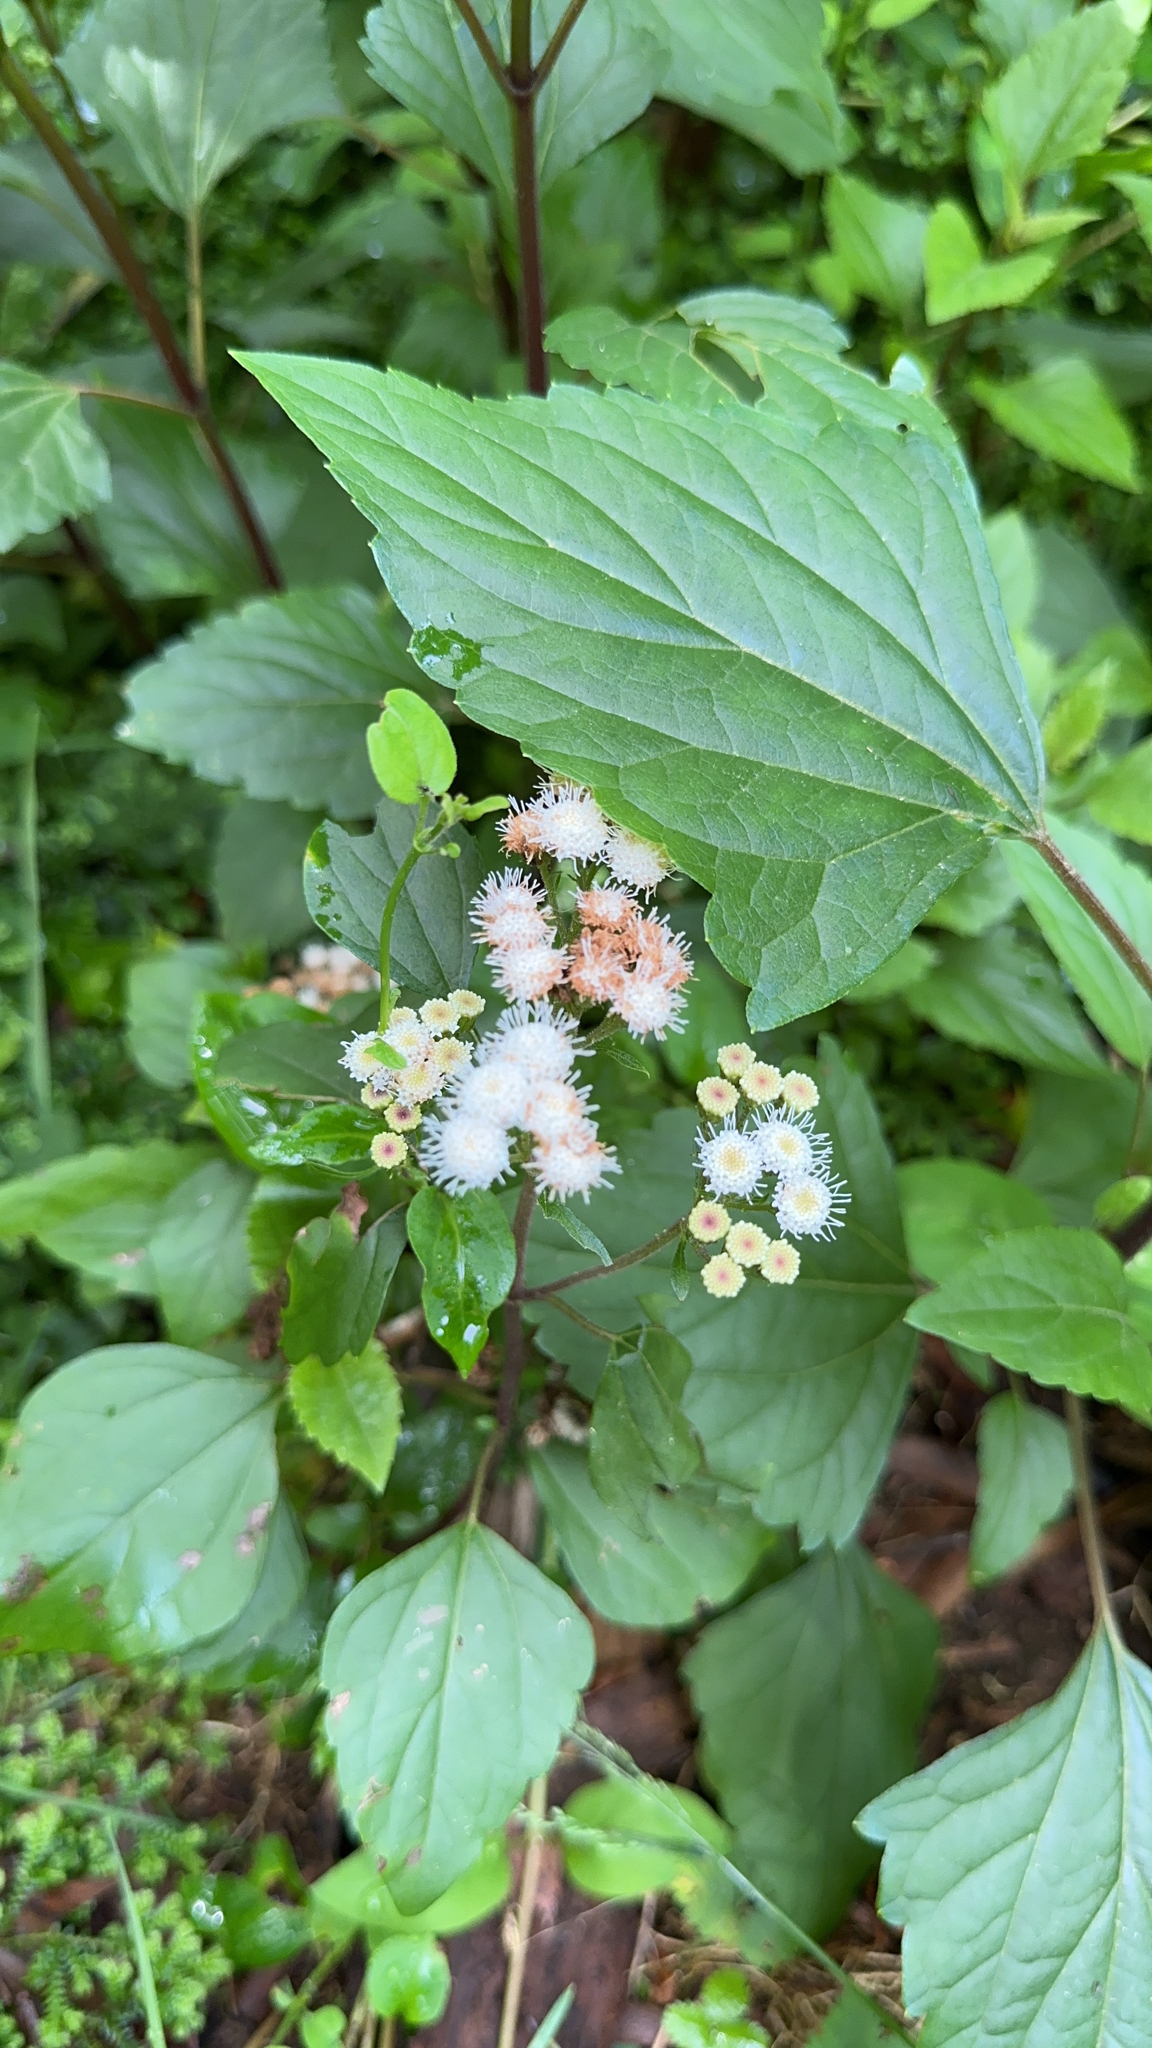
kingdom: Plantae
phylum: Tracheophyta
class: Magnoliopsida
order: Asterales
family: Asteraceae
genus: Ageratina
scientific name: Ageratina adenophora
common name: Sticky snakeroot
